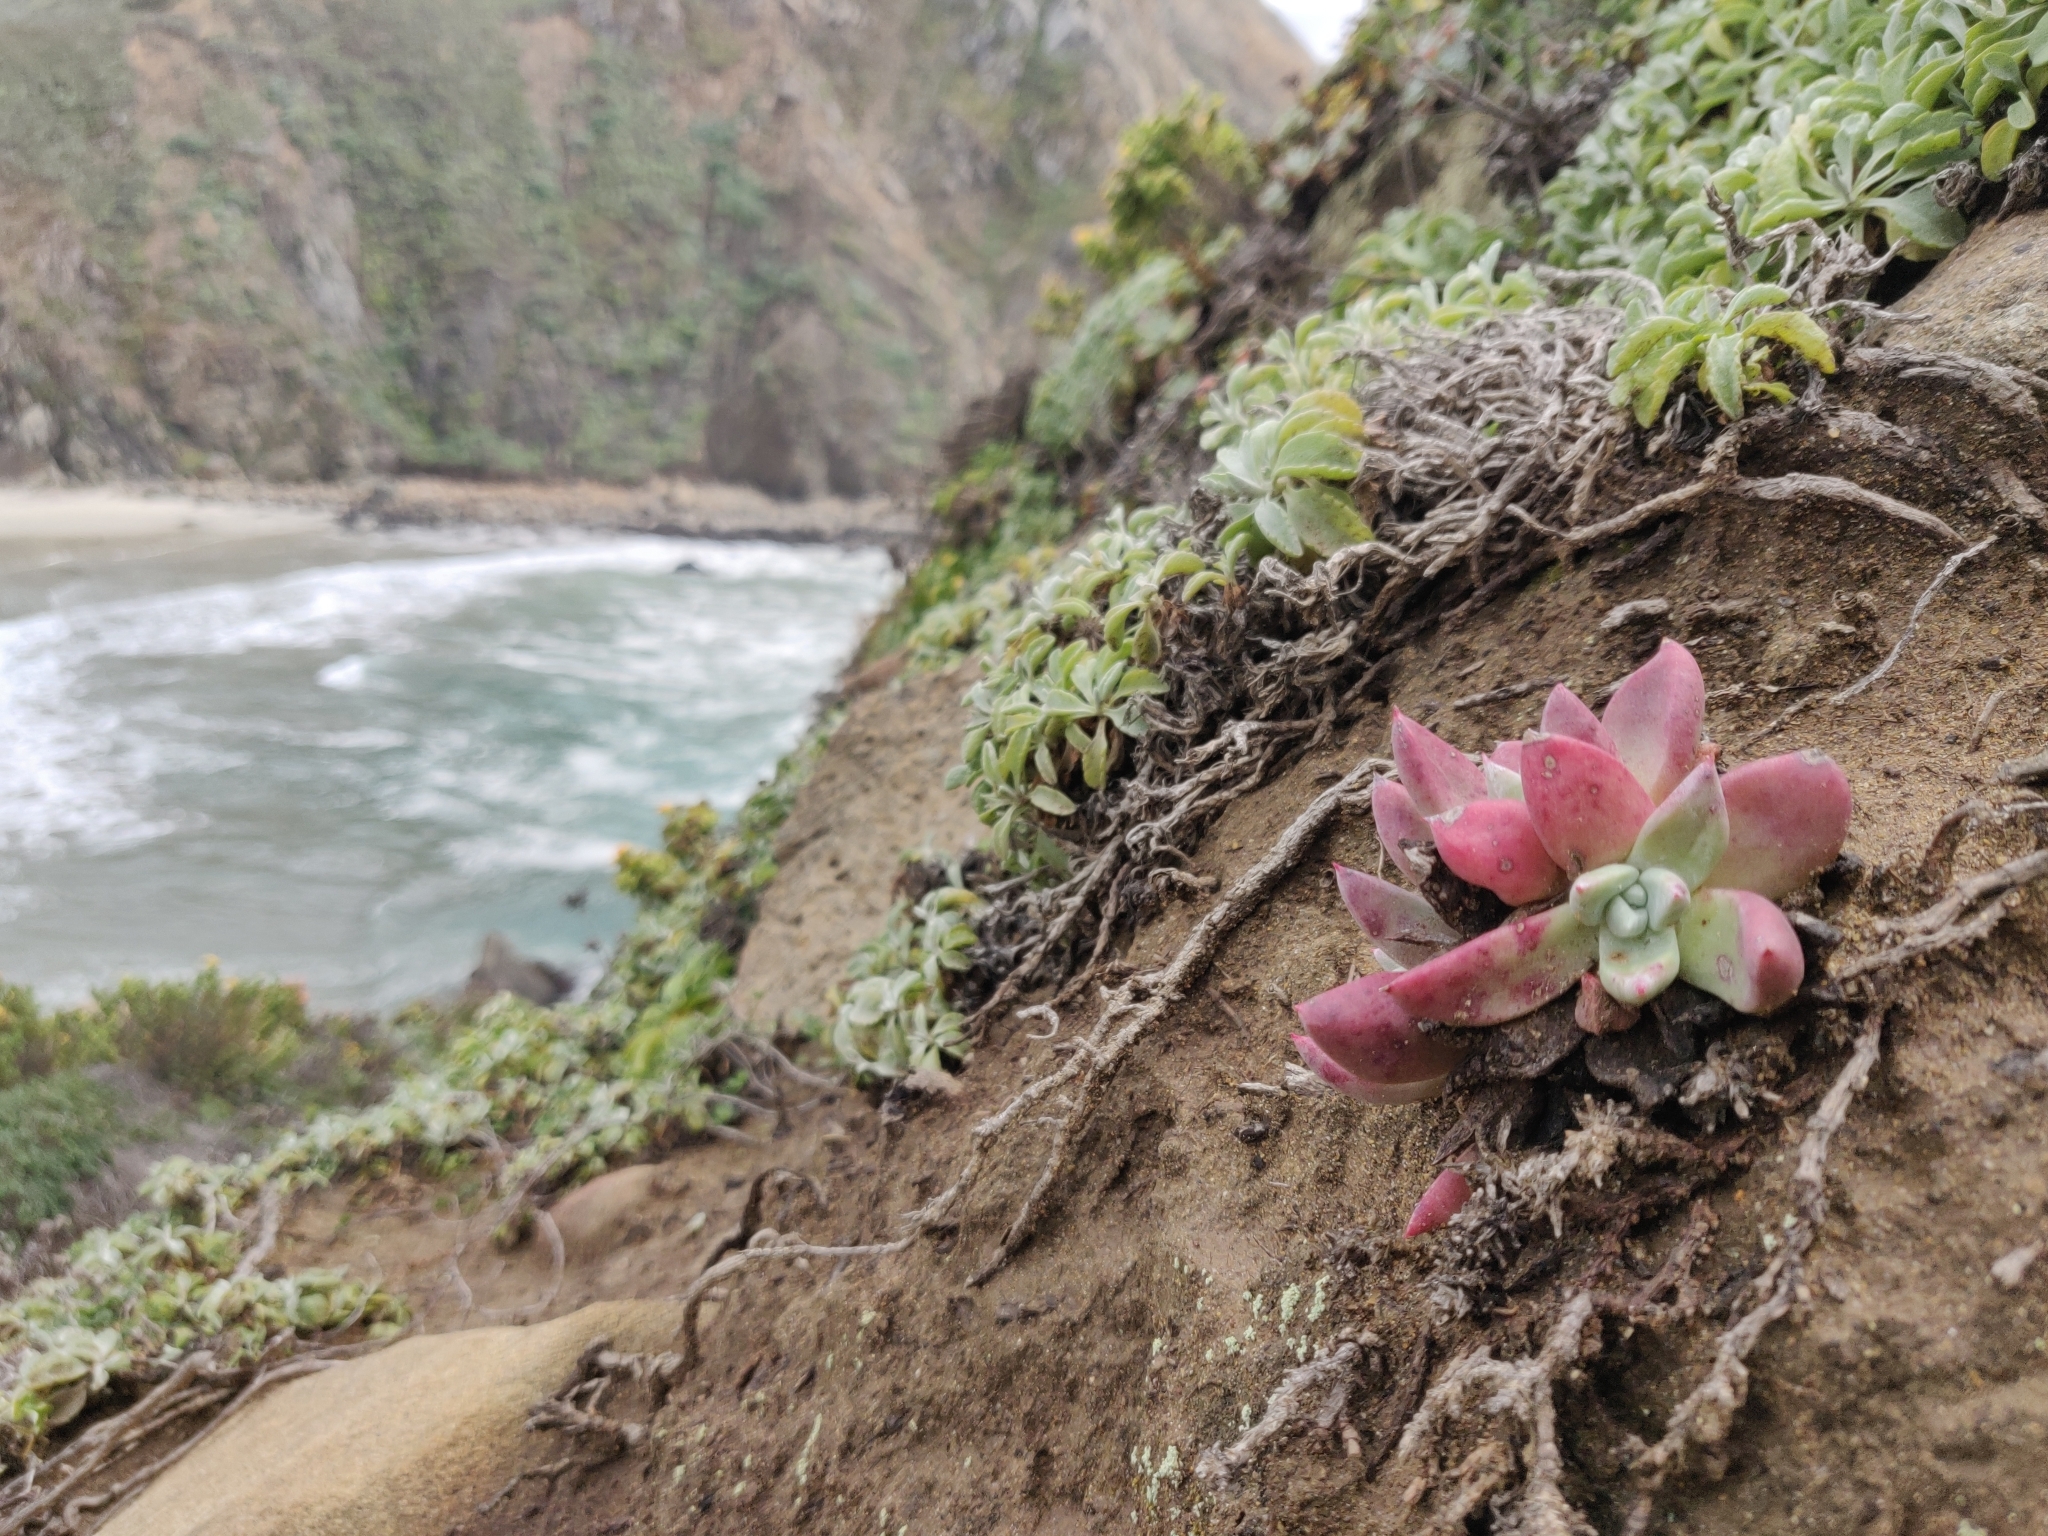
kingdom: Plantae
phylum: Tracheophyta
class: Magnoliopsida
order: Saxifragales
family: Crassulaceae
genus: Dudleya
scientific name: Dudleya caespitosa
